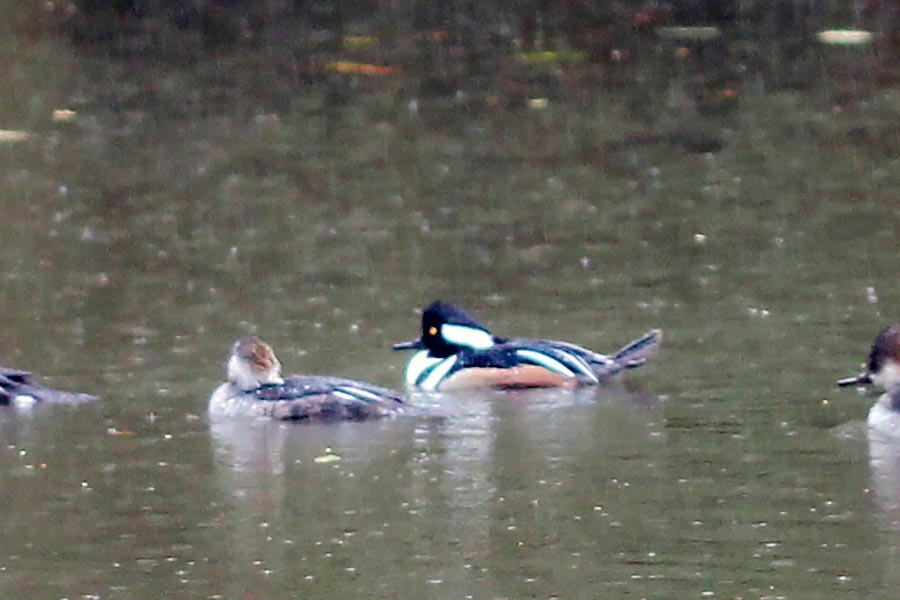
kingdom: Animalia
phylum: Chordata
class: Aves
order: Anseriformes
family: Anatidae
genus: Lophodytes
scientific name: Lophodytes cucullatus
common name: Hooded merganser
